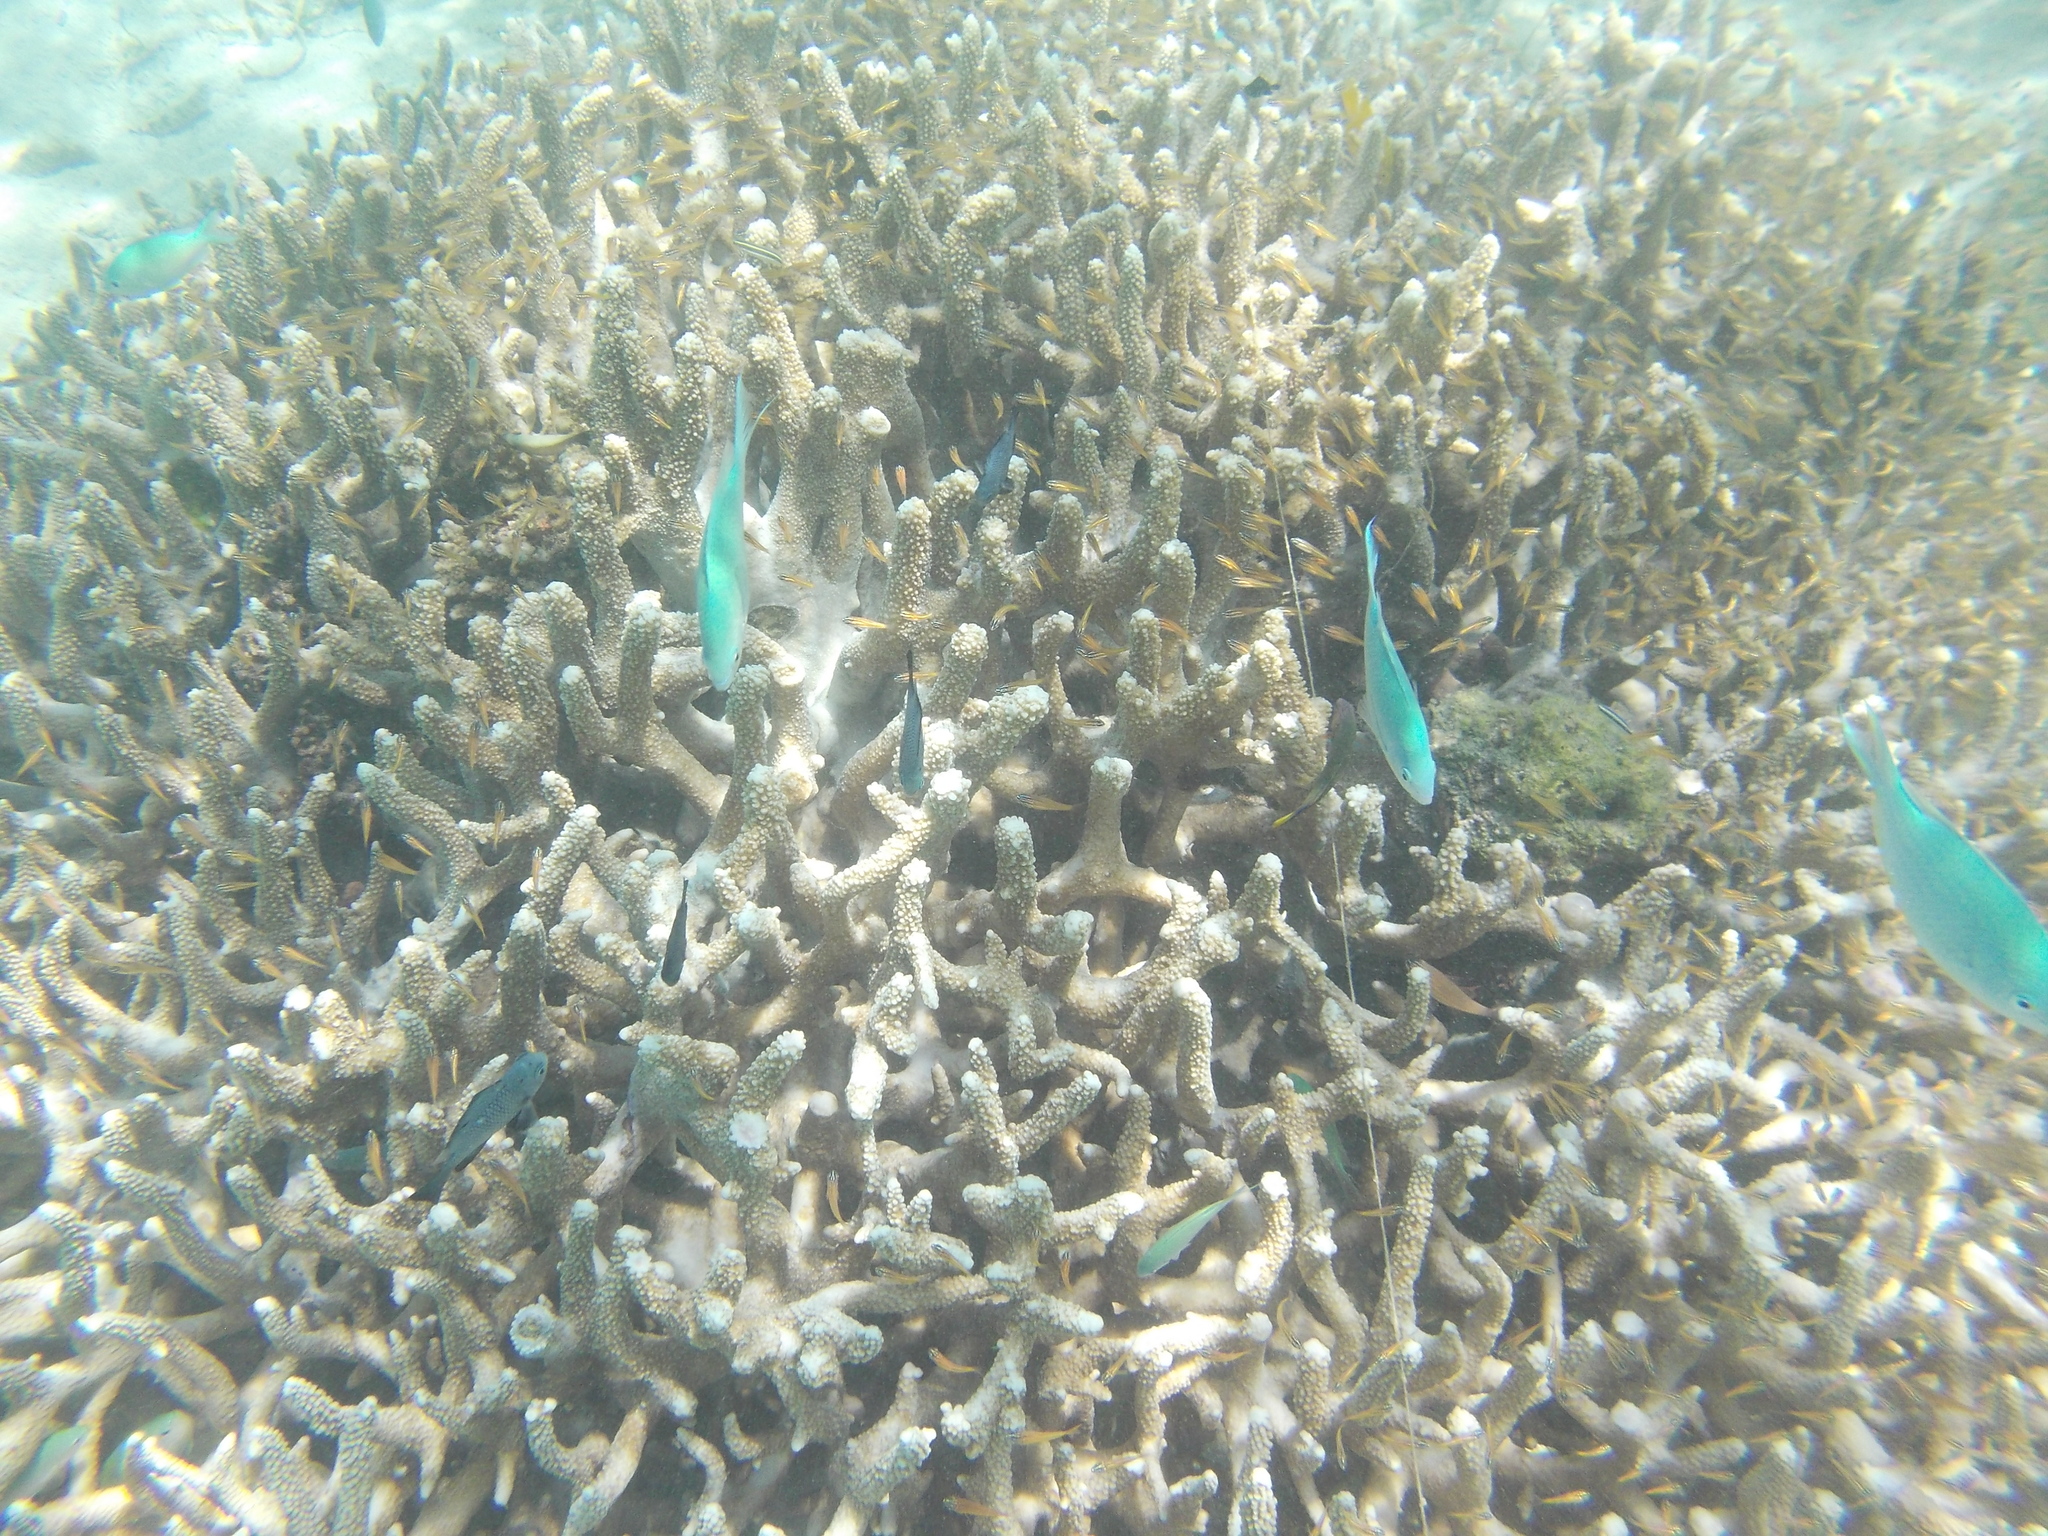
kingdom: Animalia
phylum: Chordata
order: Perciformes
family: Pomacentridae
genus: Chromis
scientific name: Chromis viridis
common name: Blue-green chromis
